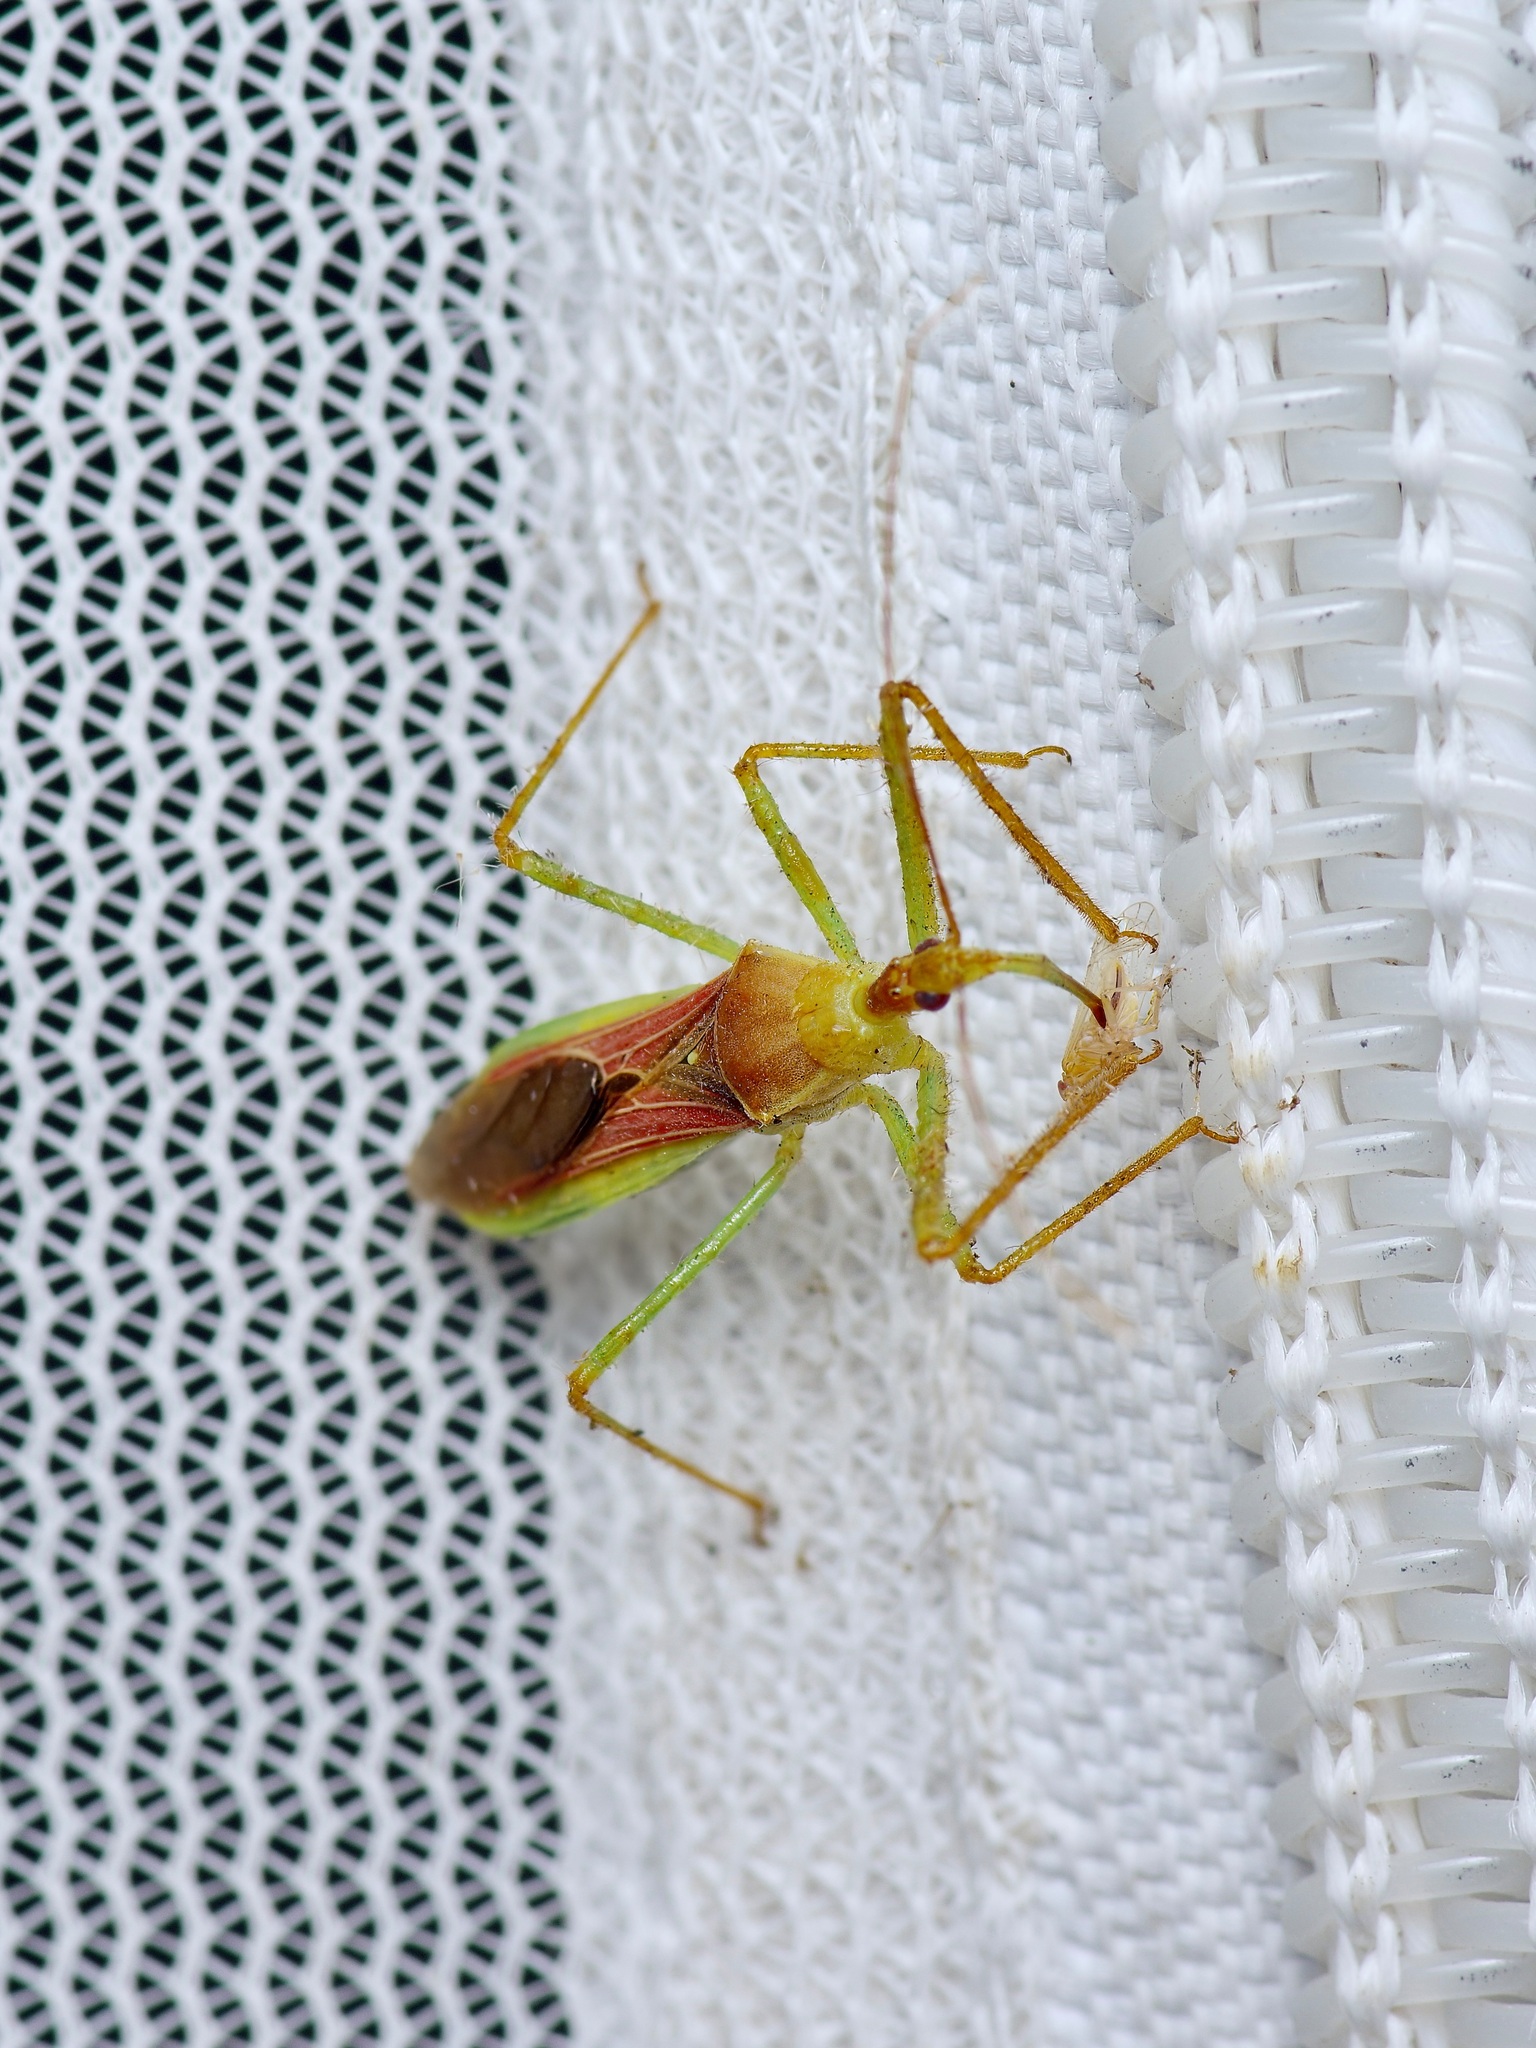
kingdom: Animalia
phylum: Arthropoda
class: Insecta
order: Hemiptera
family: Reduviidae
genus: Zelus
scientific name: Zelus renardii
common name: Assassin bug
